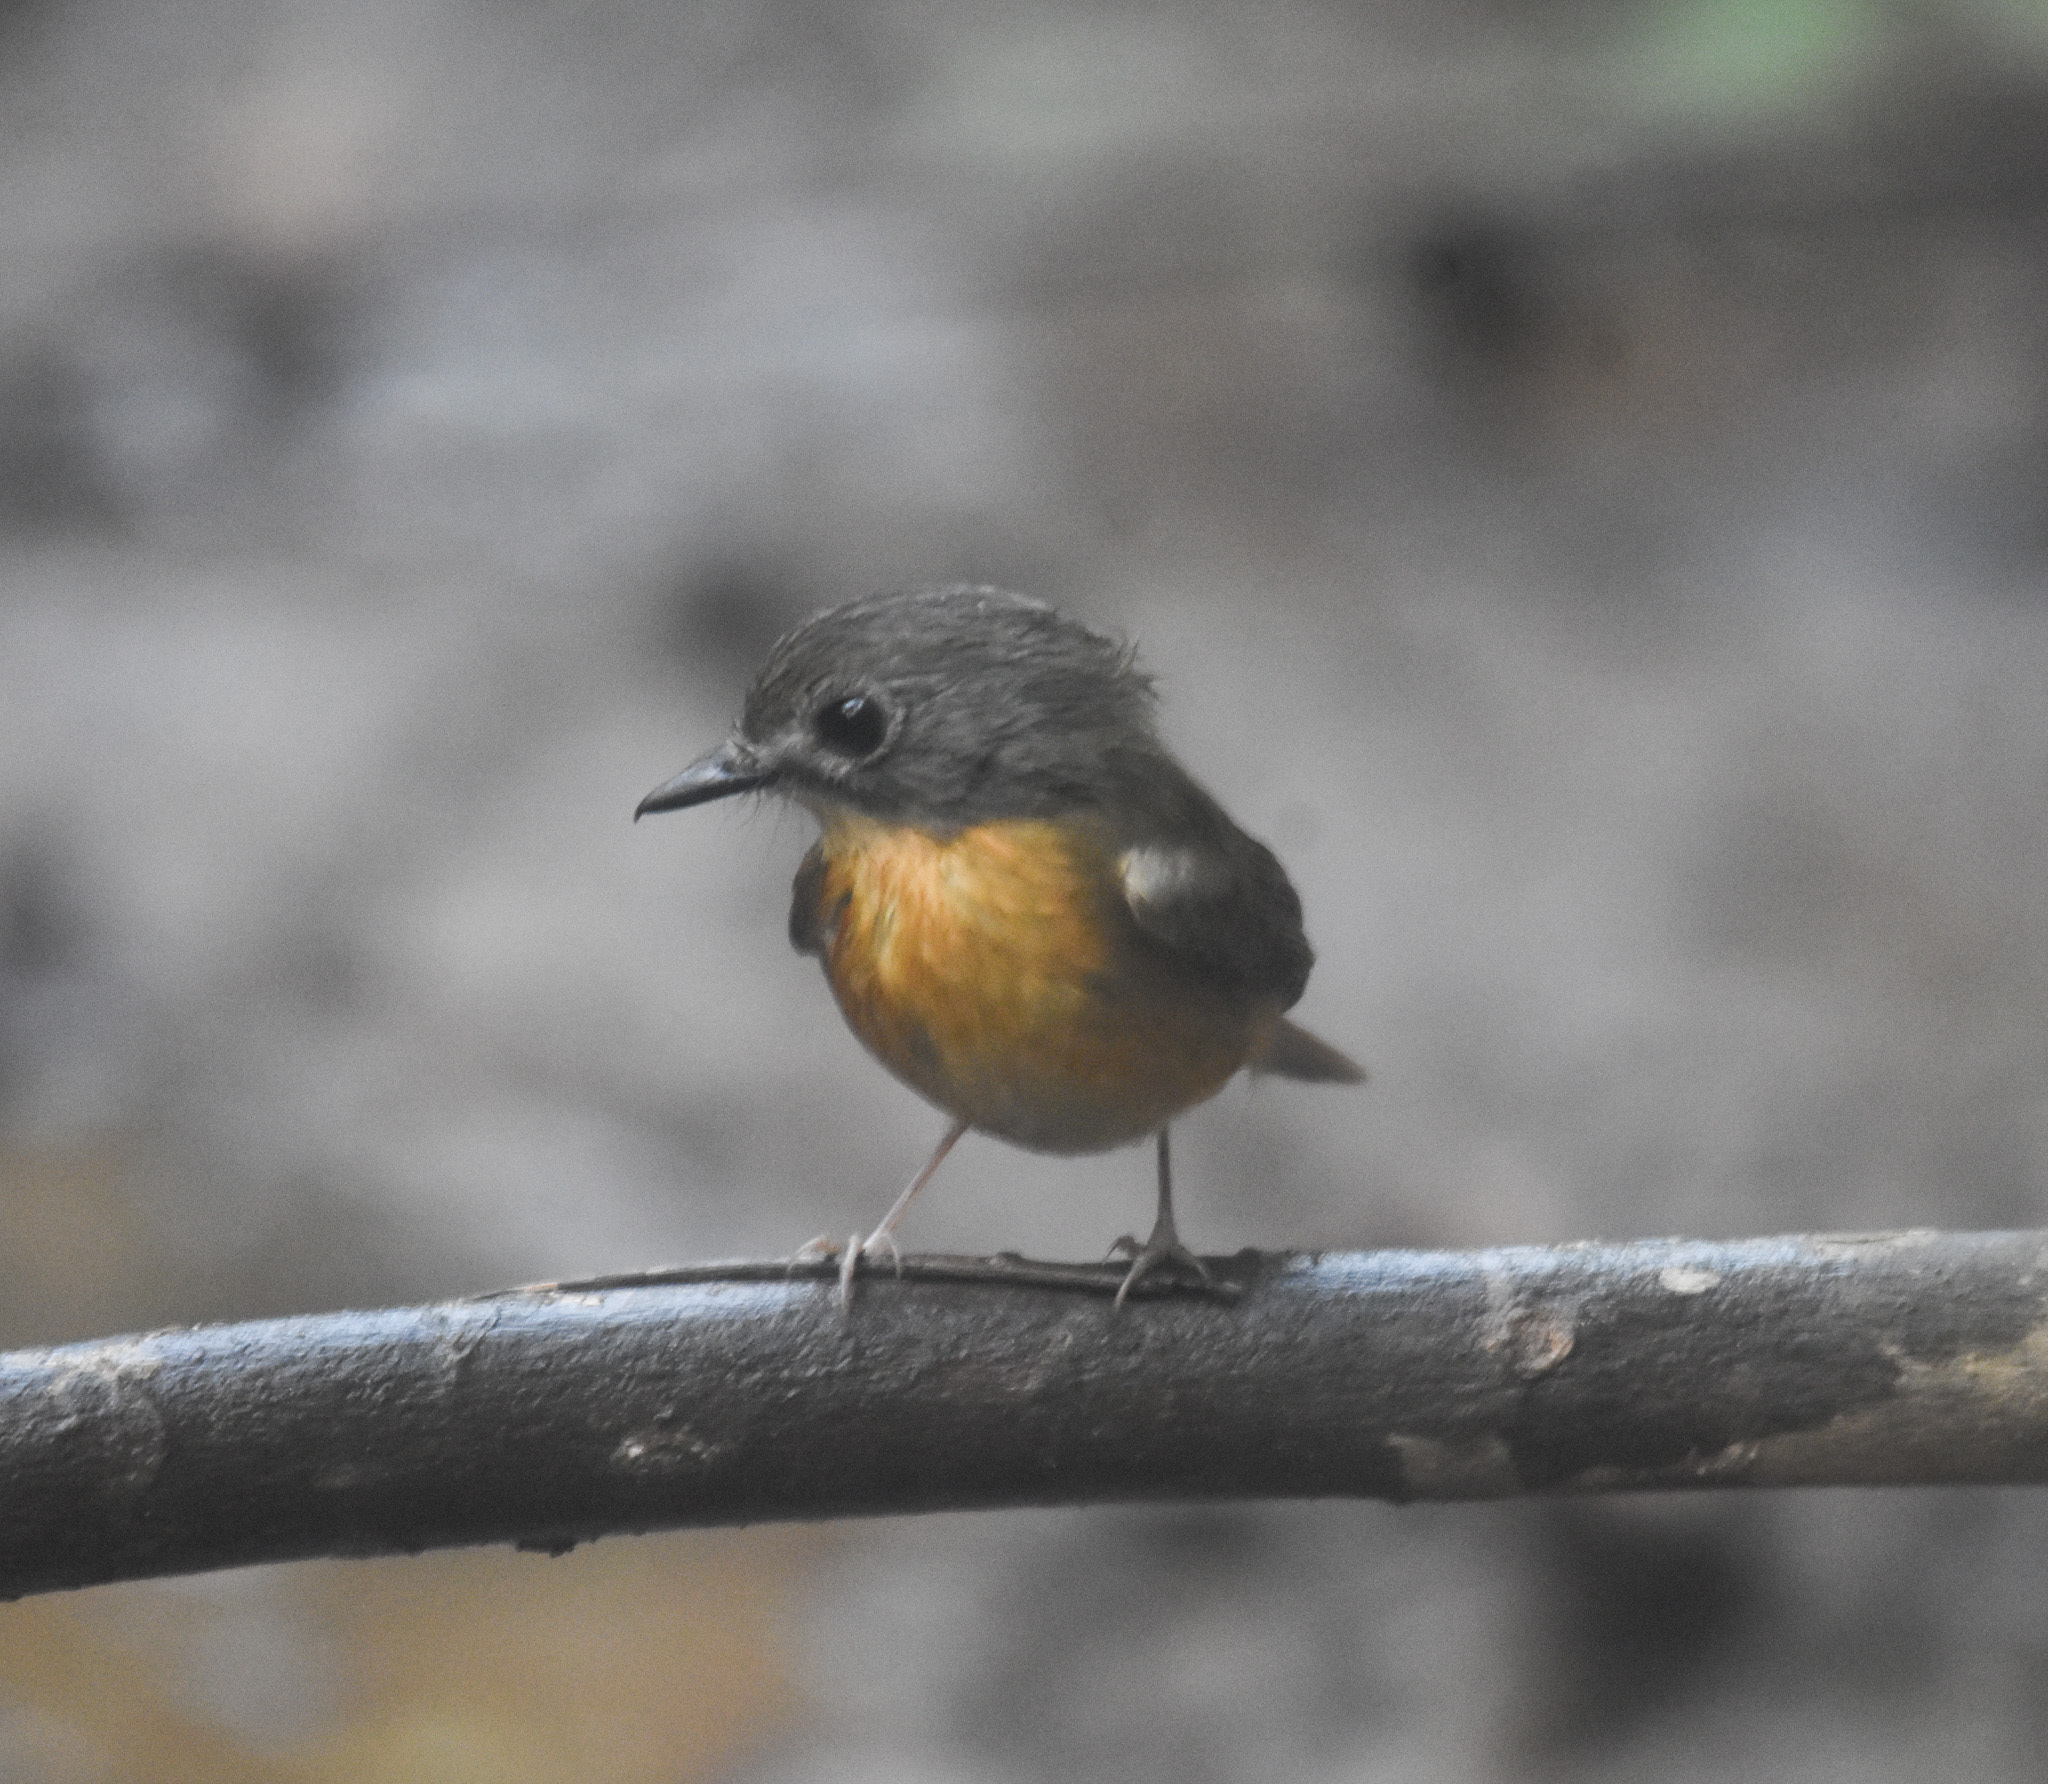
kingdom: Animalia
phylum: Chordata
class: Aves
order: Passeriformes
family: Muscicapidae
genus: Cyornis
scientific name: Cyornis poliogenys
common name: Pale-chinned blue flycatcher
